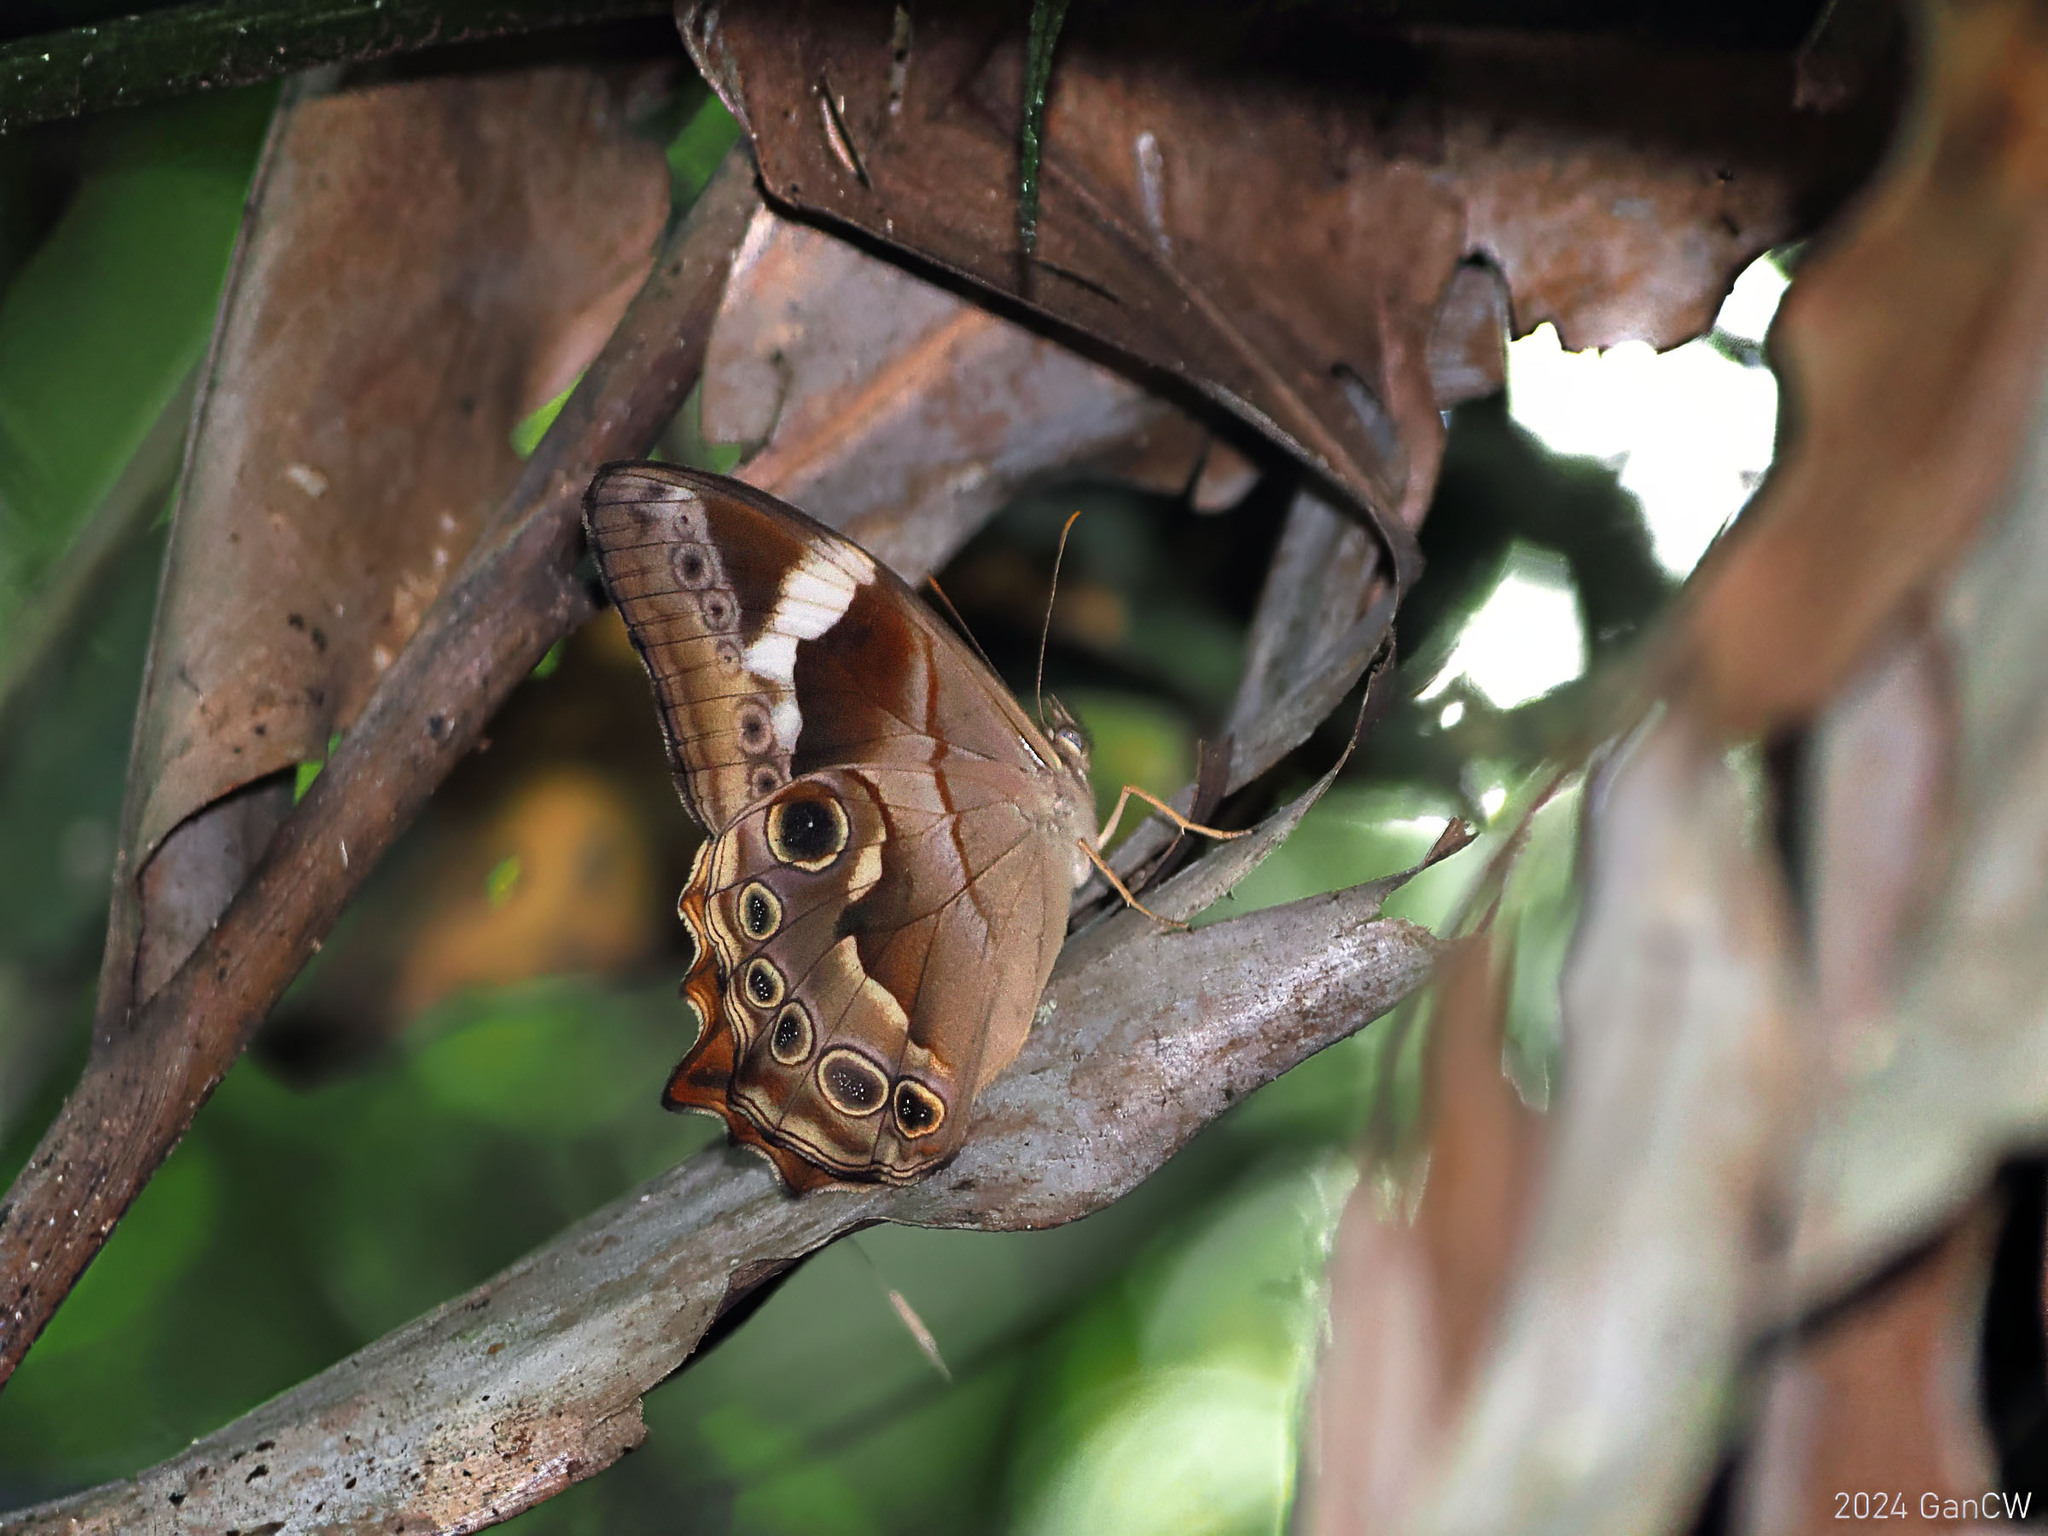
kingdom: Animalia
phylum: Arthropoda
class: Insecta
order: Lepidoptera
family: Nymphalidae
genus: Lethe
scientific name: Lethe chandica
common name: Angled red forester
